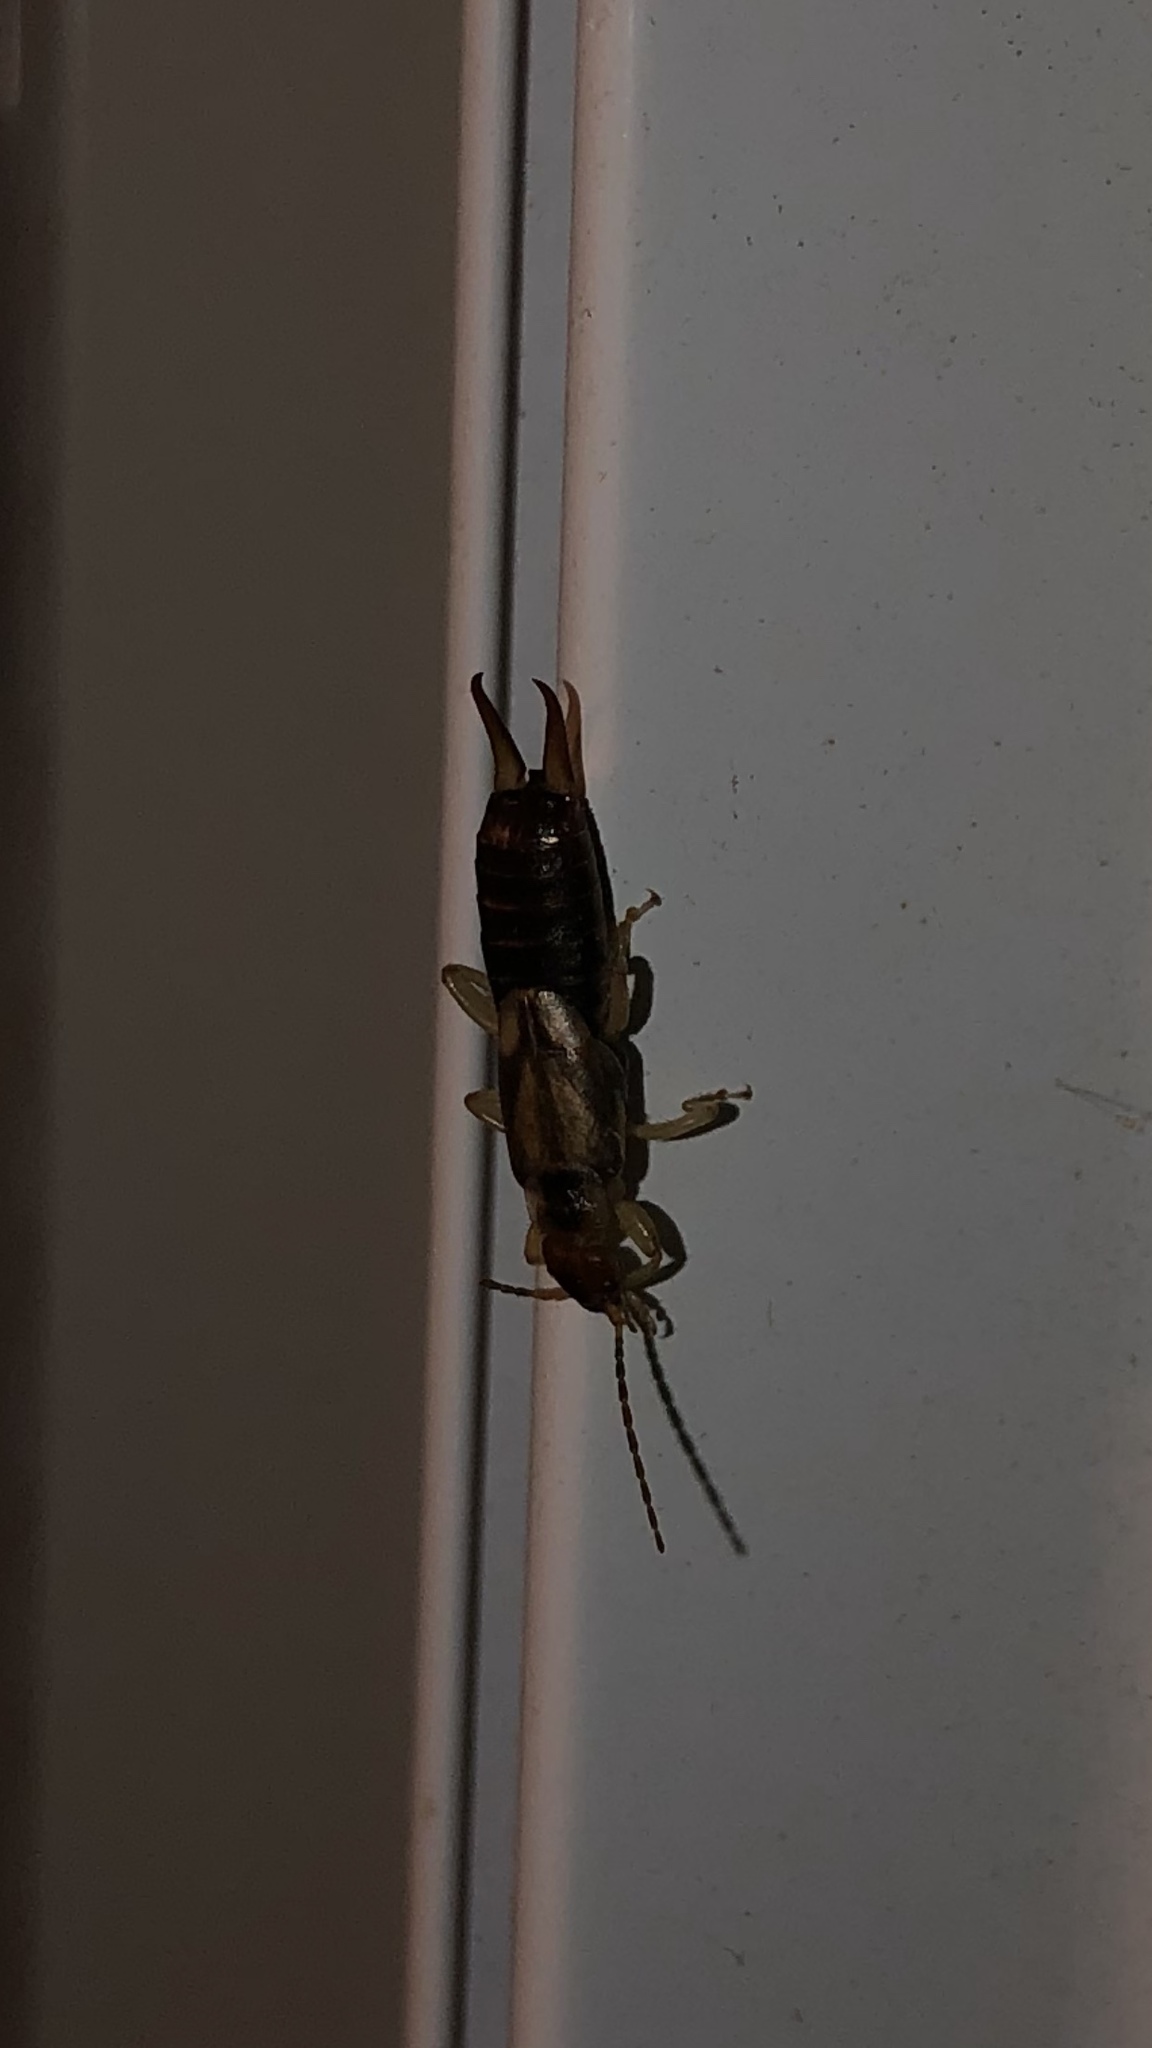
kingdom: Animalia
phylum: Arthropoda
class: Insecta
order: Dermaptera
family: Forficulidae
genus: Forficula
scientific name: Forficula
